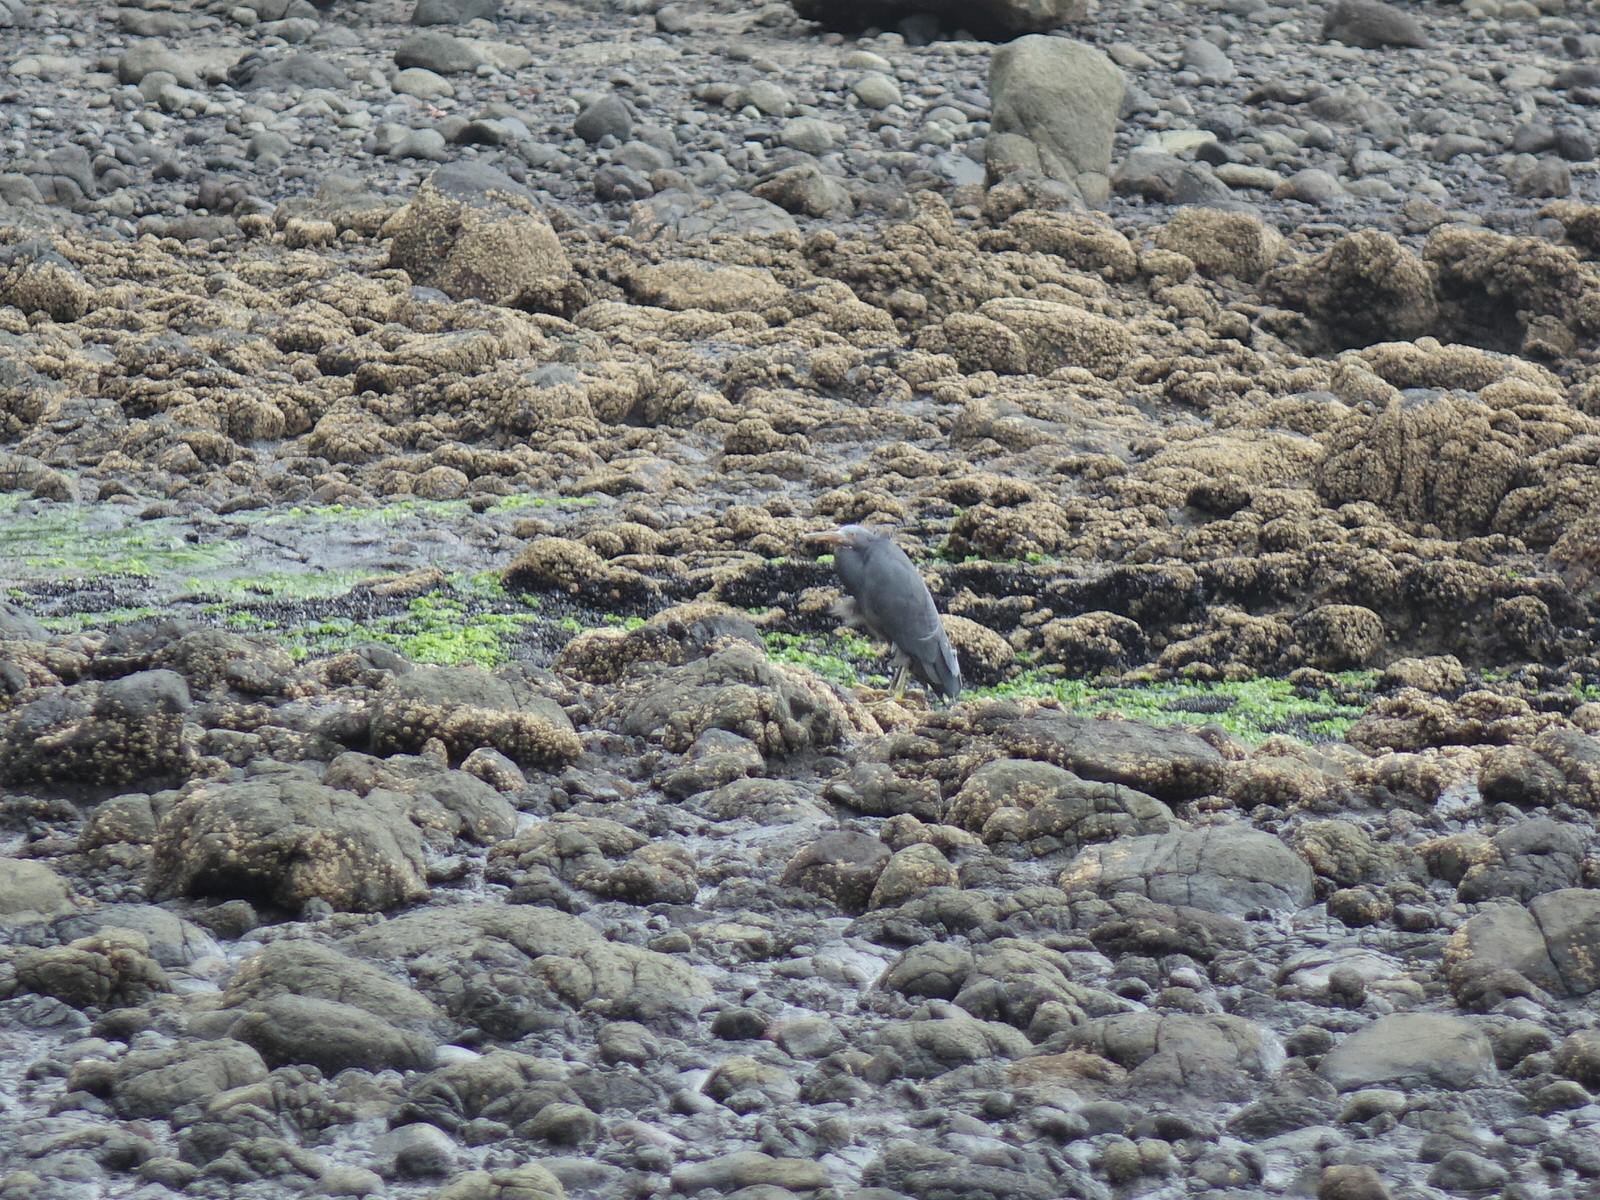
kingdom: Animalia
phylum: Chordata
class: Aves
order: Pelecaniformes
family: Ardeidae
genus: Egretta
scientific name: Egretta sacra
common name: Pacific reef heron
